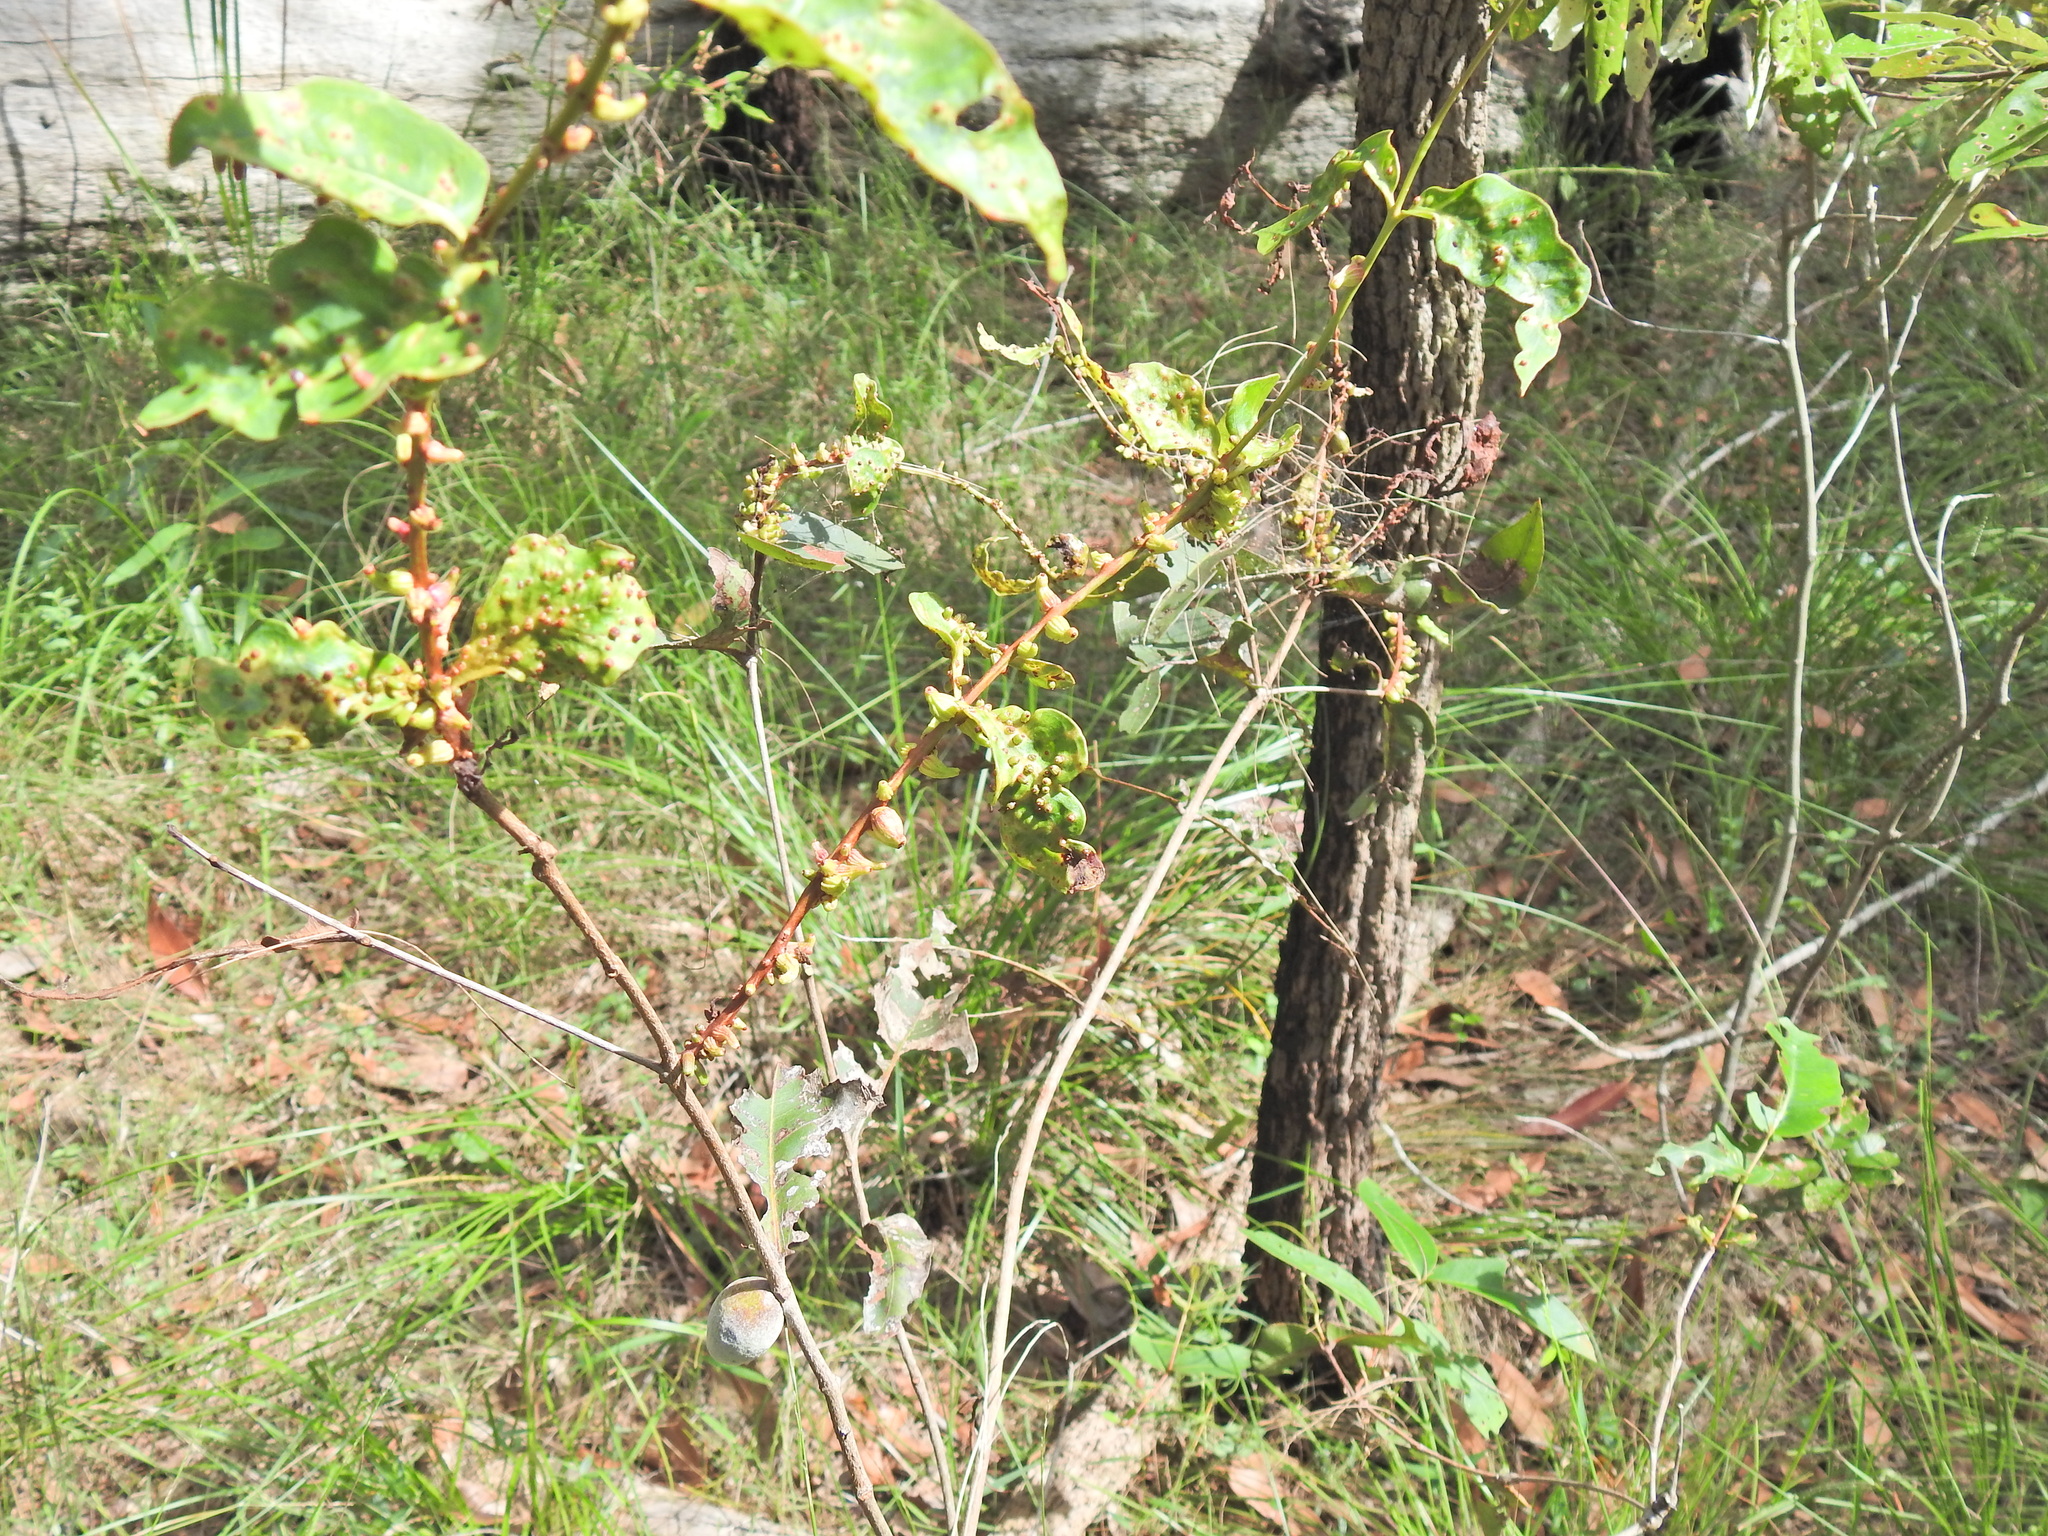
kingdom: Animalia
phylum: Arthropoda
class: Insecta
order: Hemiptera
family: Eriococcidae
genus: Apiomorpha
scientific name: Apiomorpha pileata
